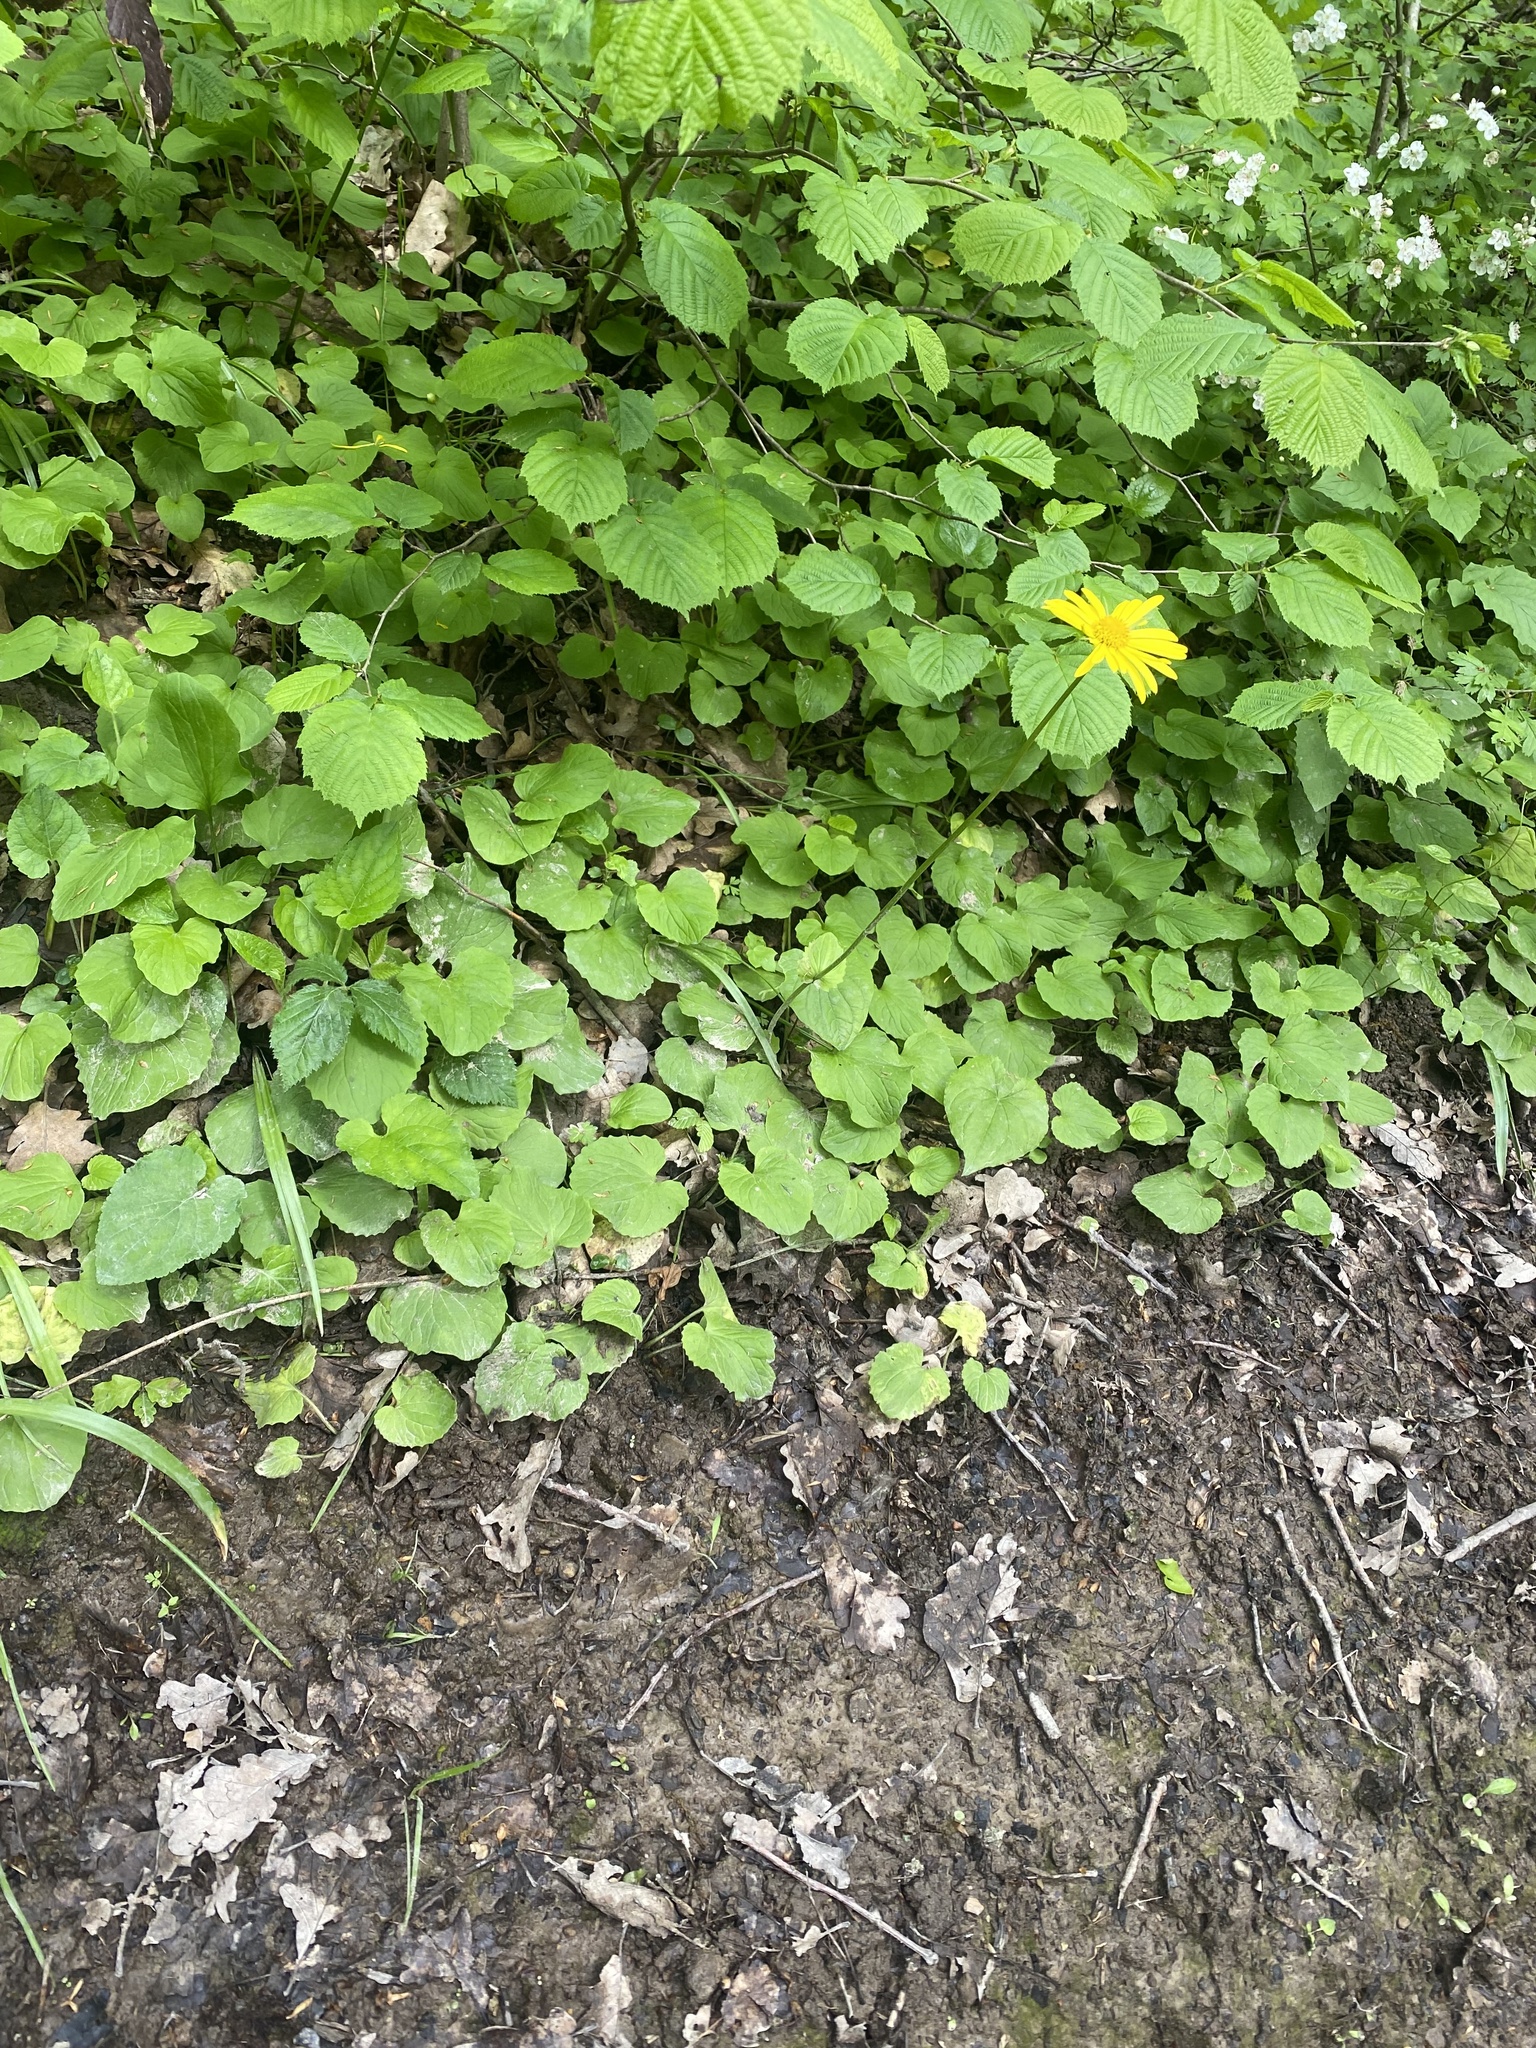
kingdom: Plantae
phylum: Tracheophyta
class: Magnoliopsida
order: Asterales
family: Asteraceae
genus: Doronicum
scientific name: Doronicum
